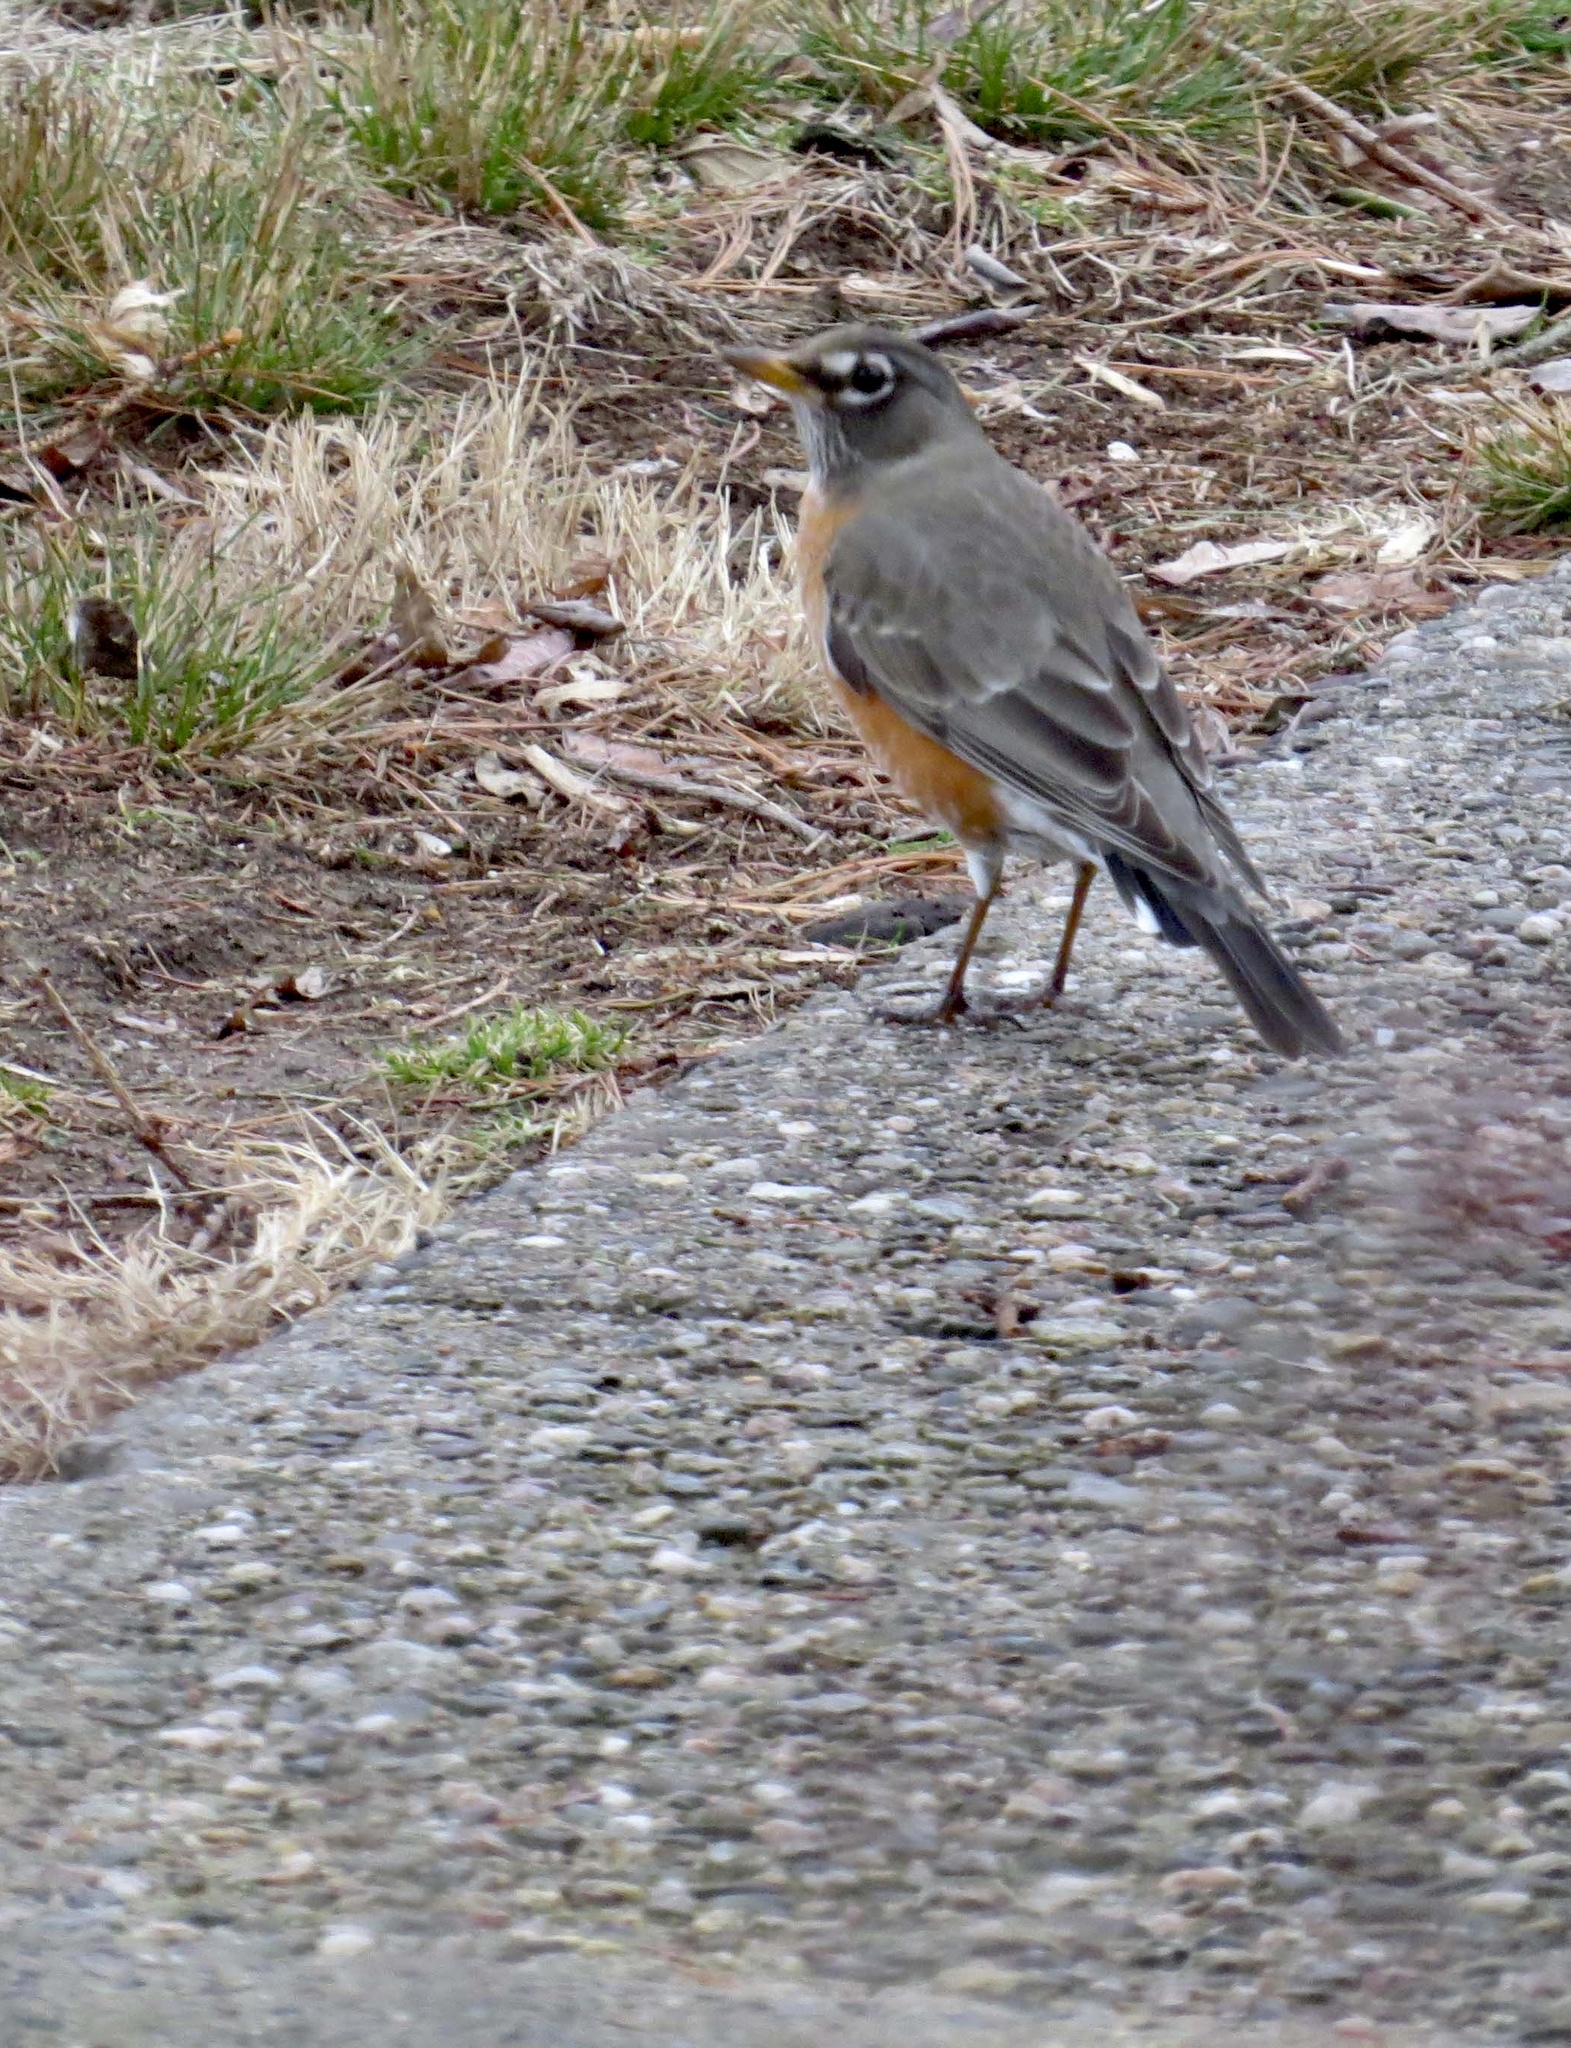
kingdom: Animalia
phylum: Chordata
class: Aves
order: Passeriformes
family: Turdidae
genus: Turdus
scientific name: Turdus migratorius
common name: American robin
